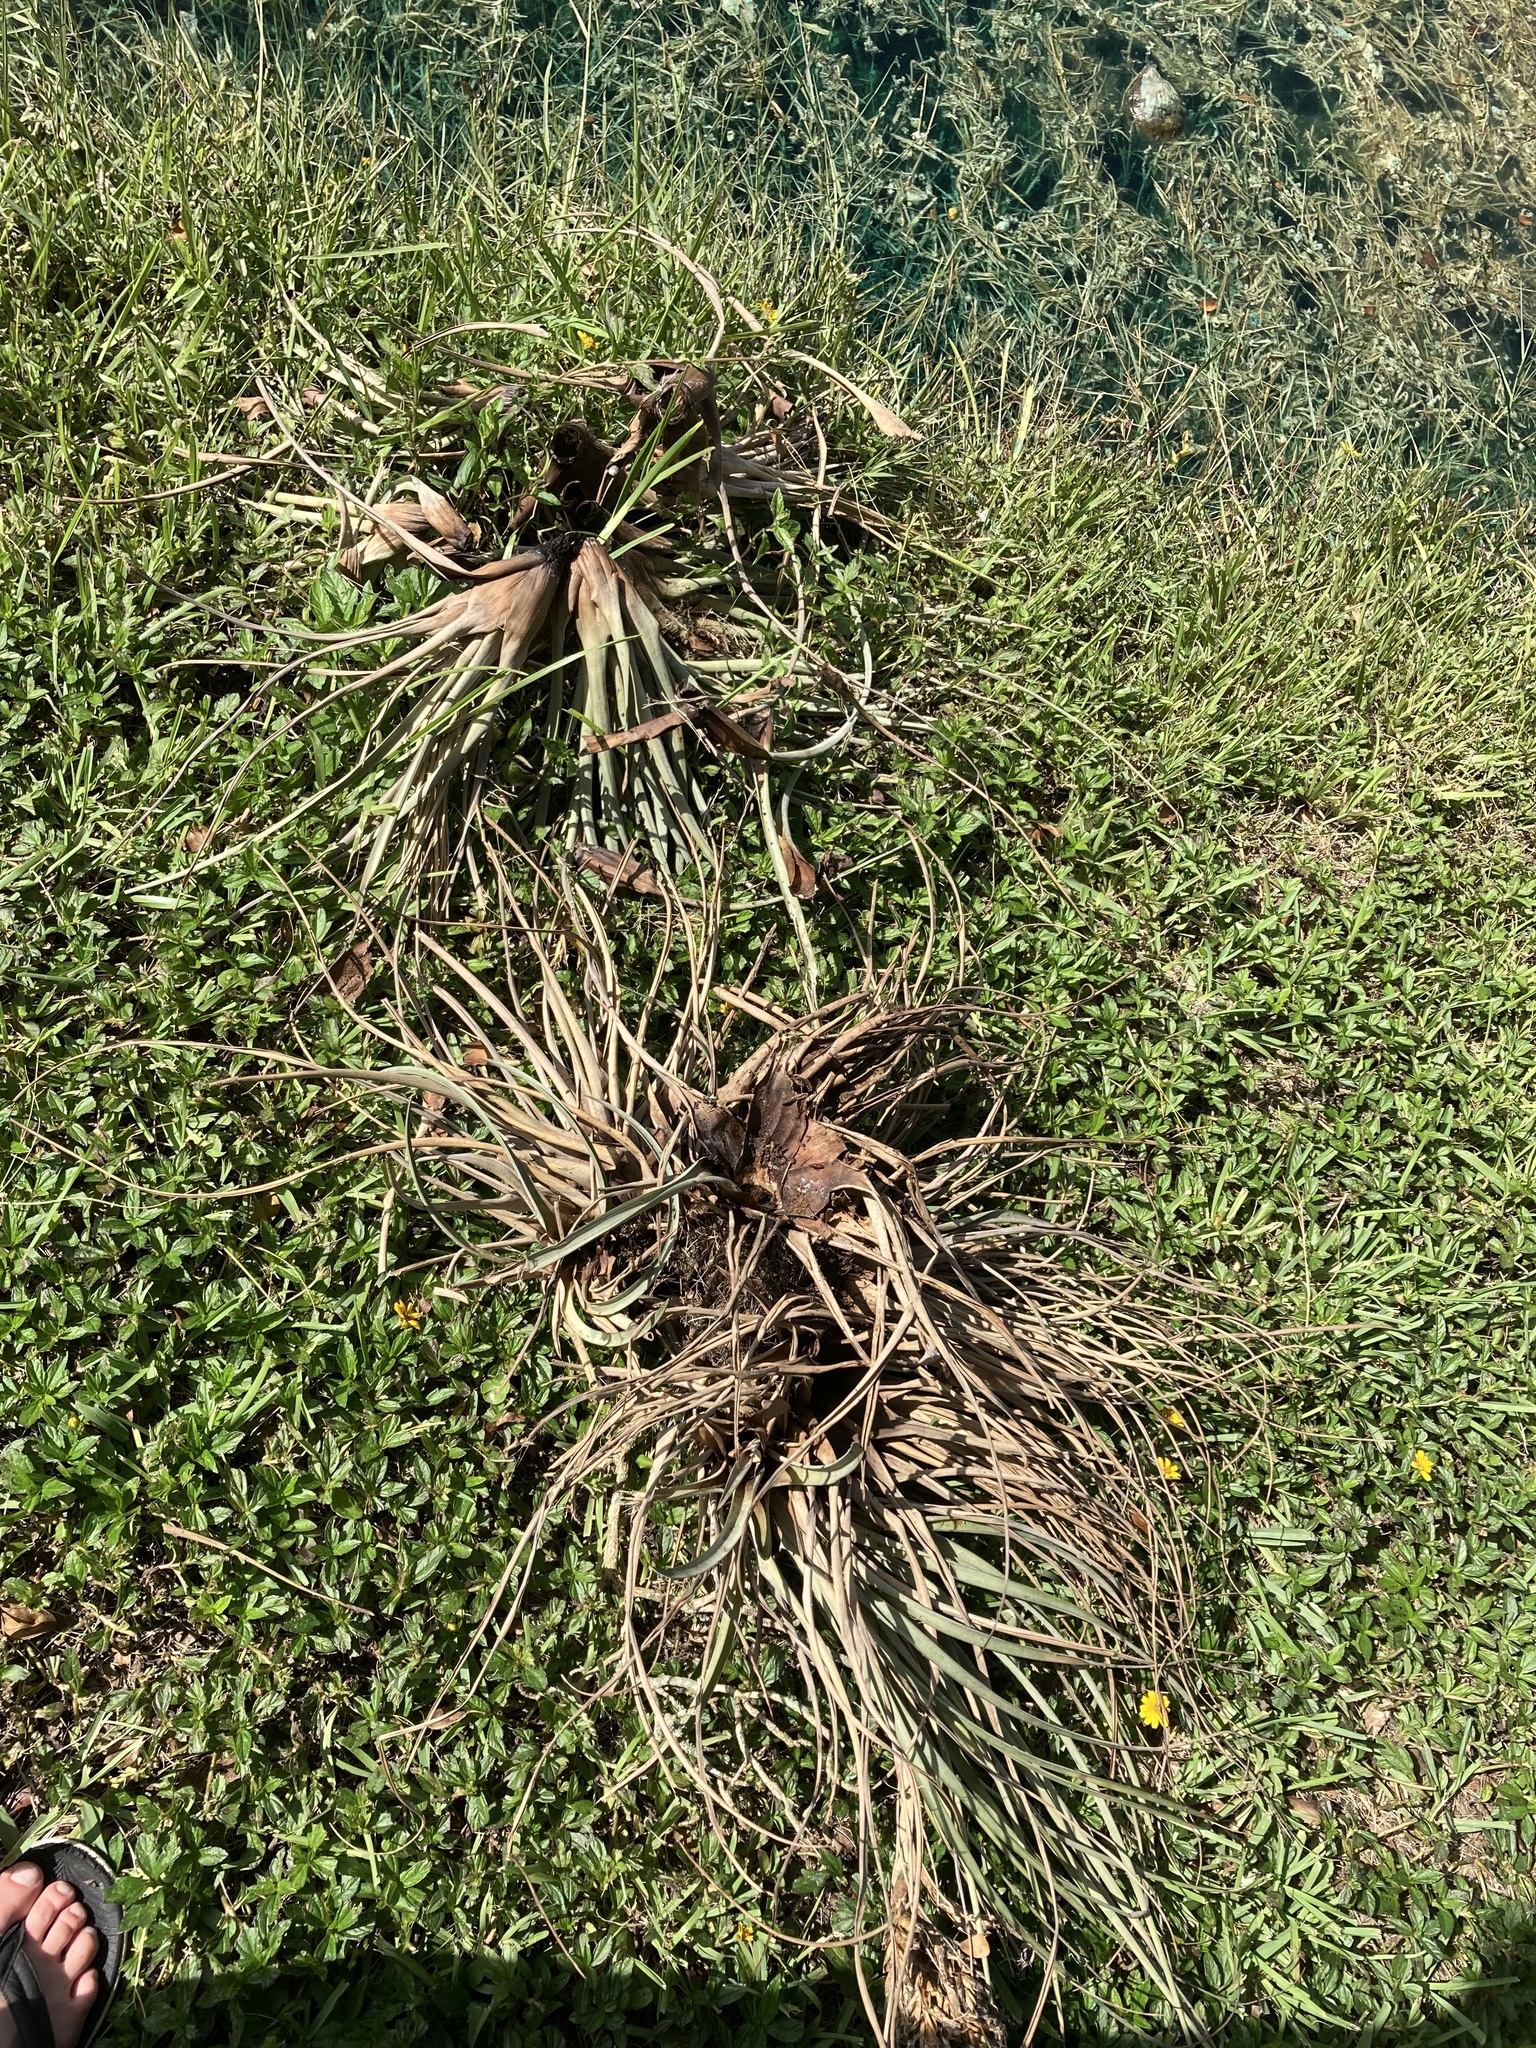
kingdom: Plantae
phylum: Tracheophyta
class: Liliopsida
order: Poales
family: Bromeliaceae
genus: Tillandsia
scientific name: Tillandsia fasciculata
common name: Giant airplant
